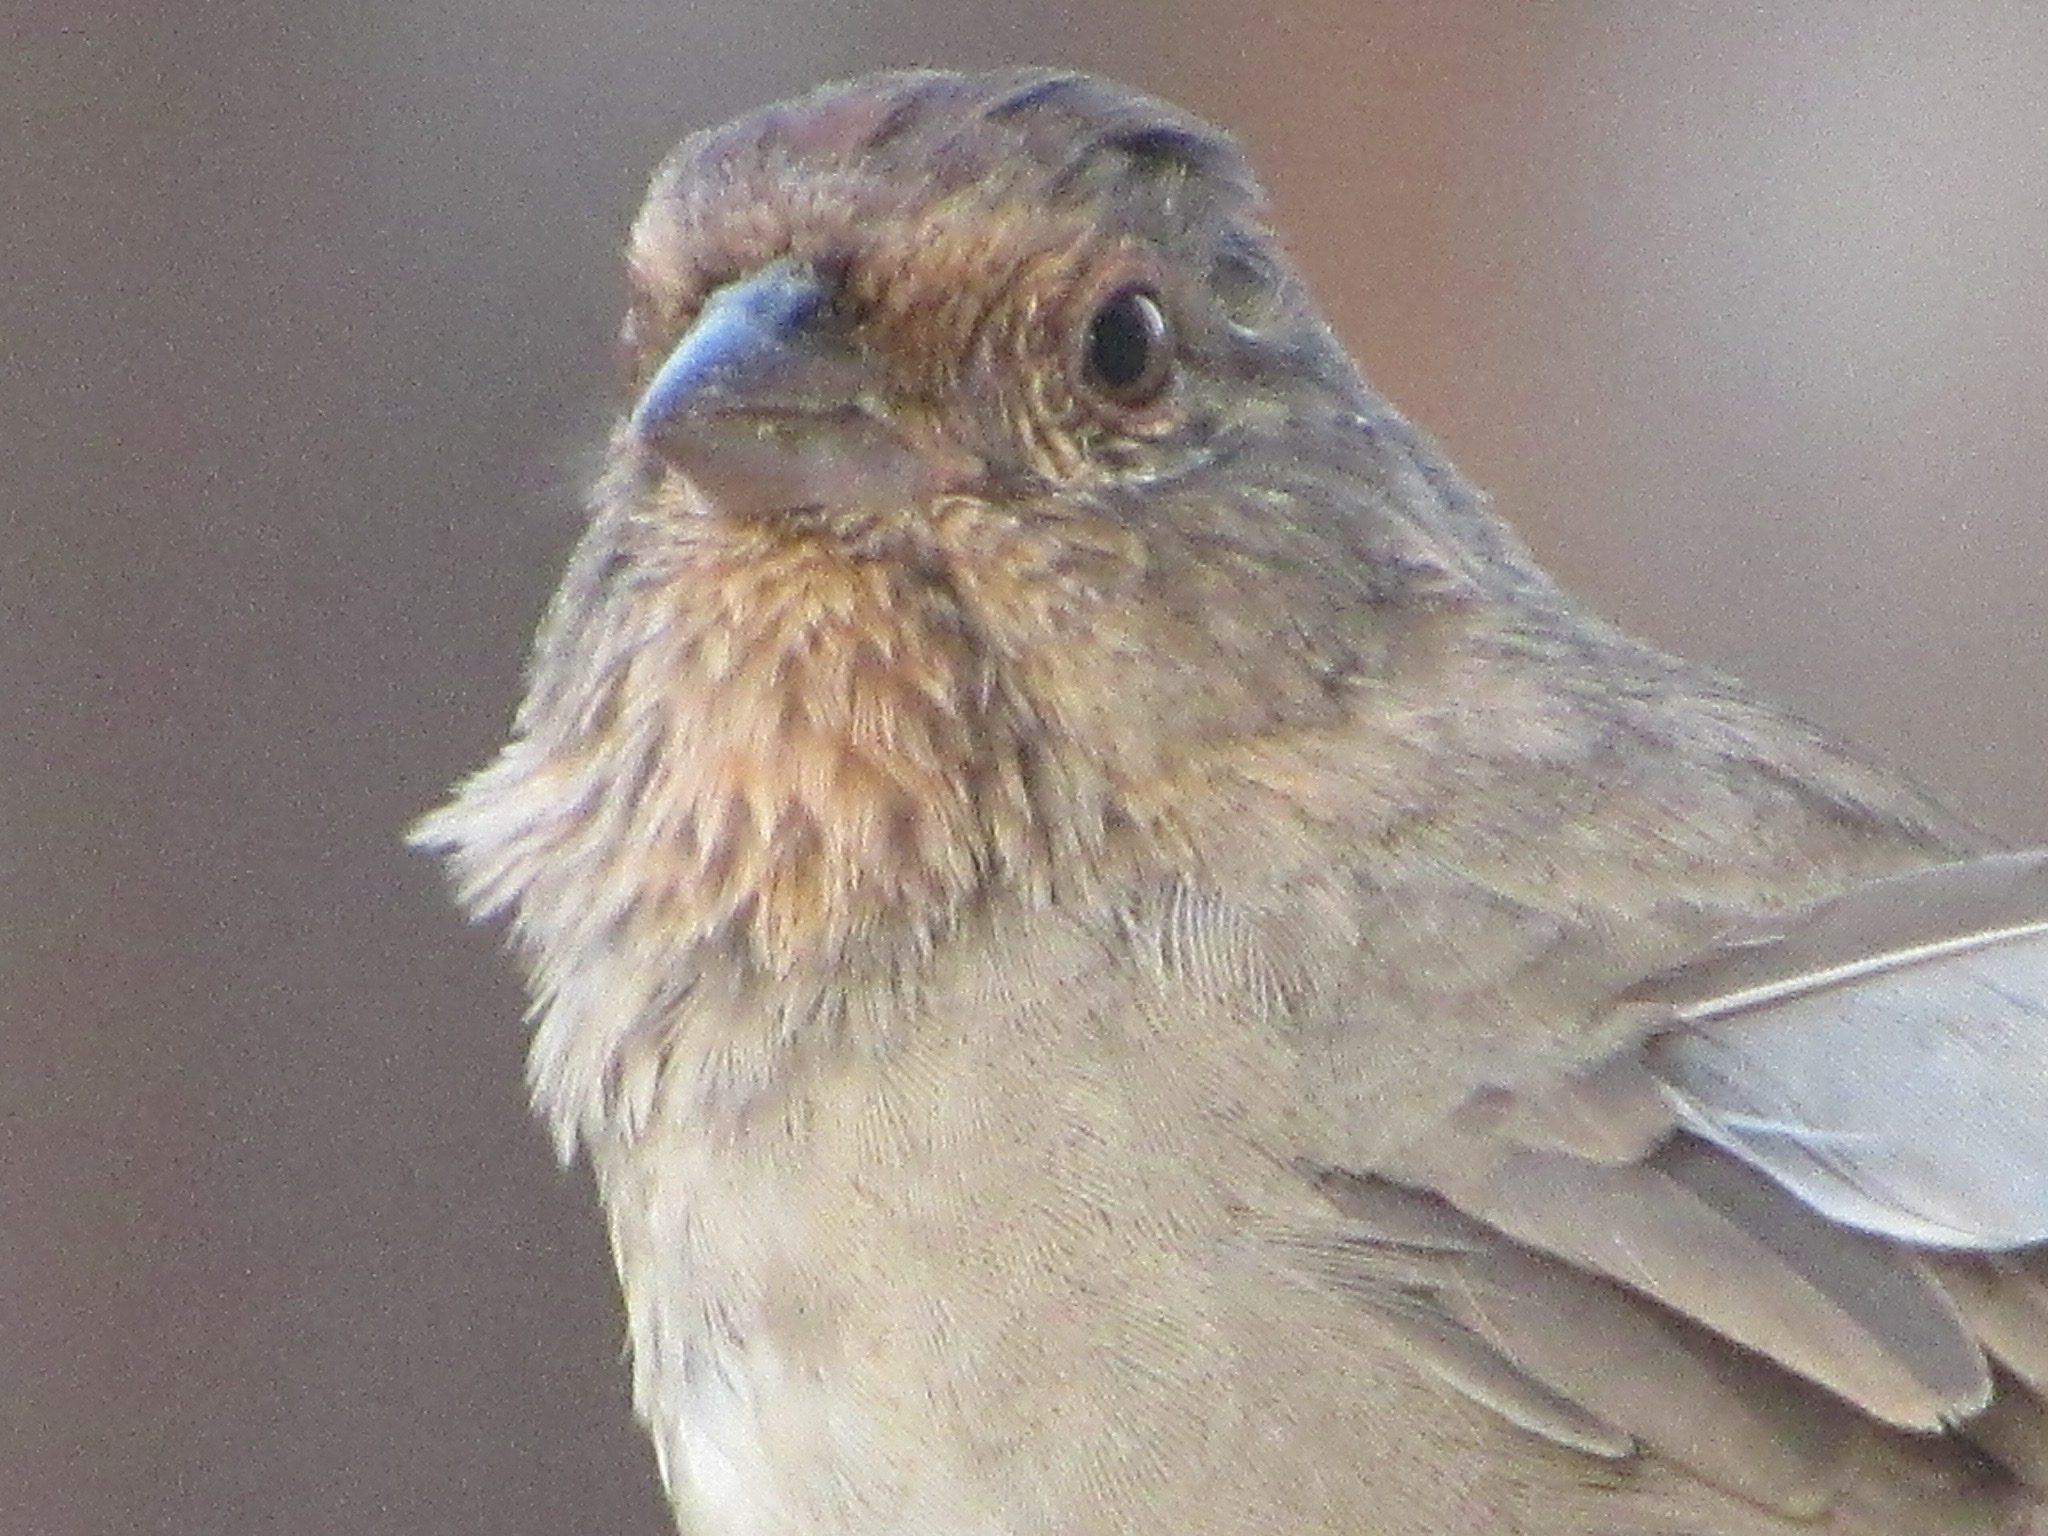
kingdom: Animalia
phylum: Chordata
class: Aves
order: Passeriformes
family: Passerellidae
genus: Melozone
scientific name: Melozone crissalis
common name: California towhee
